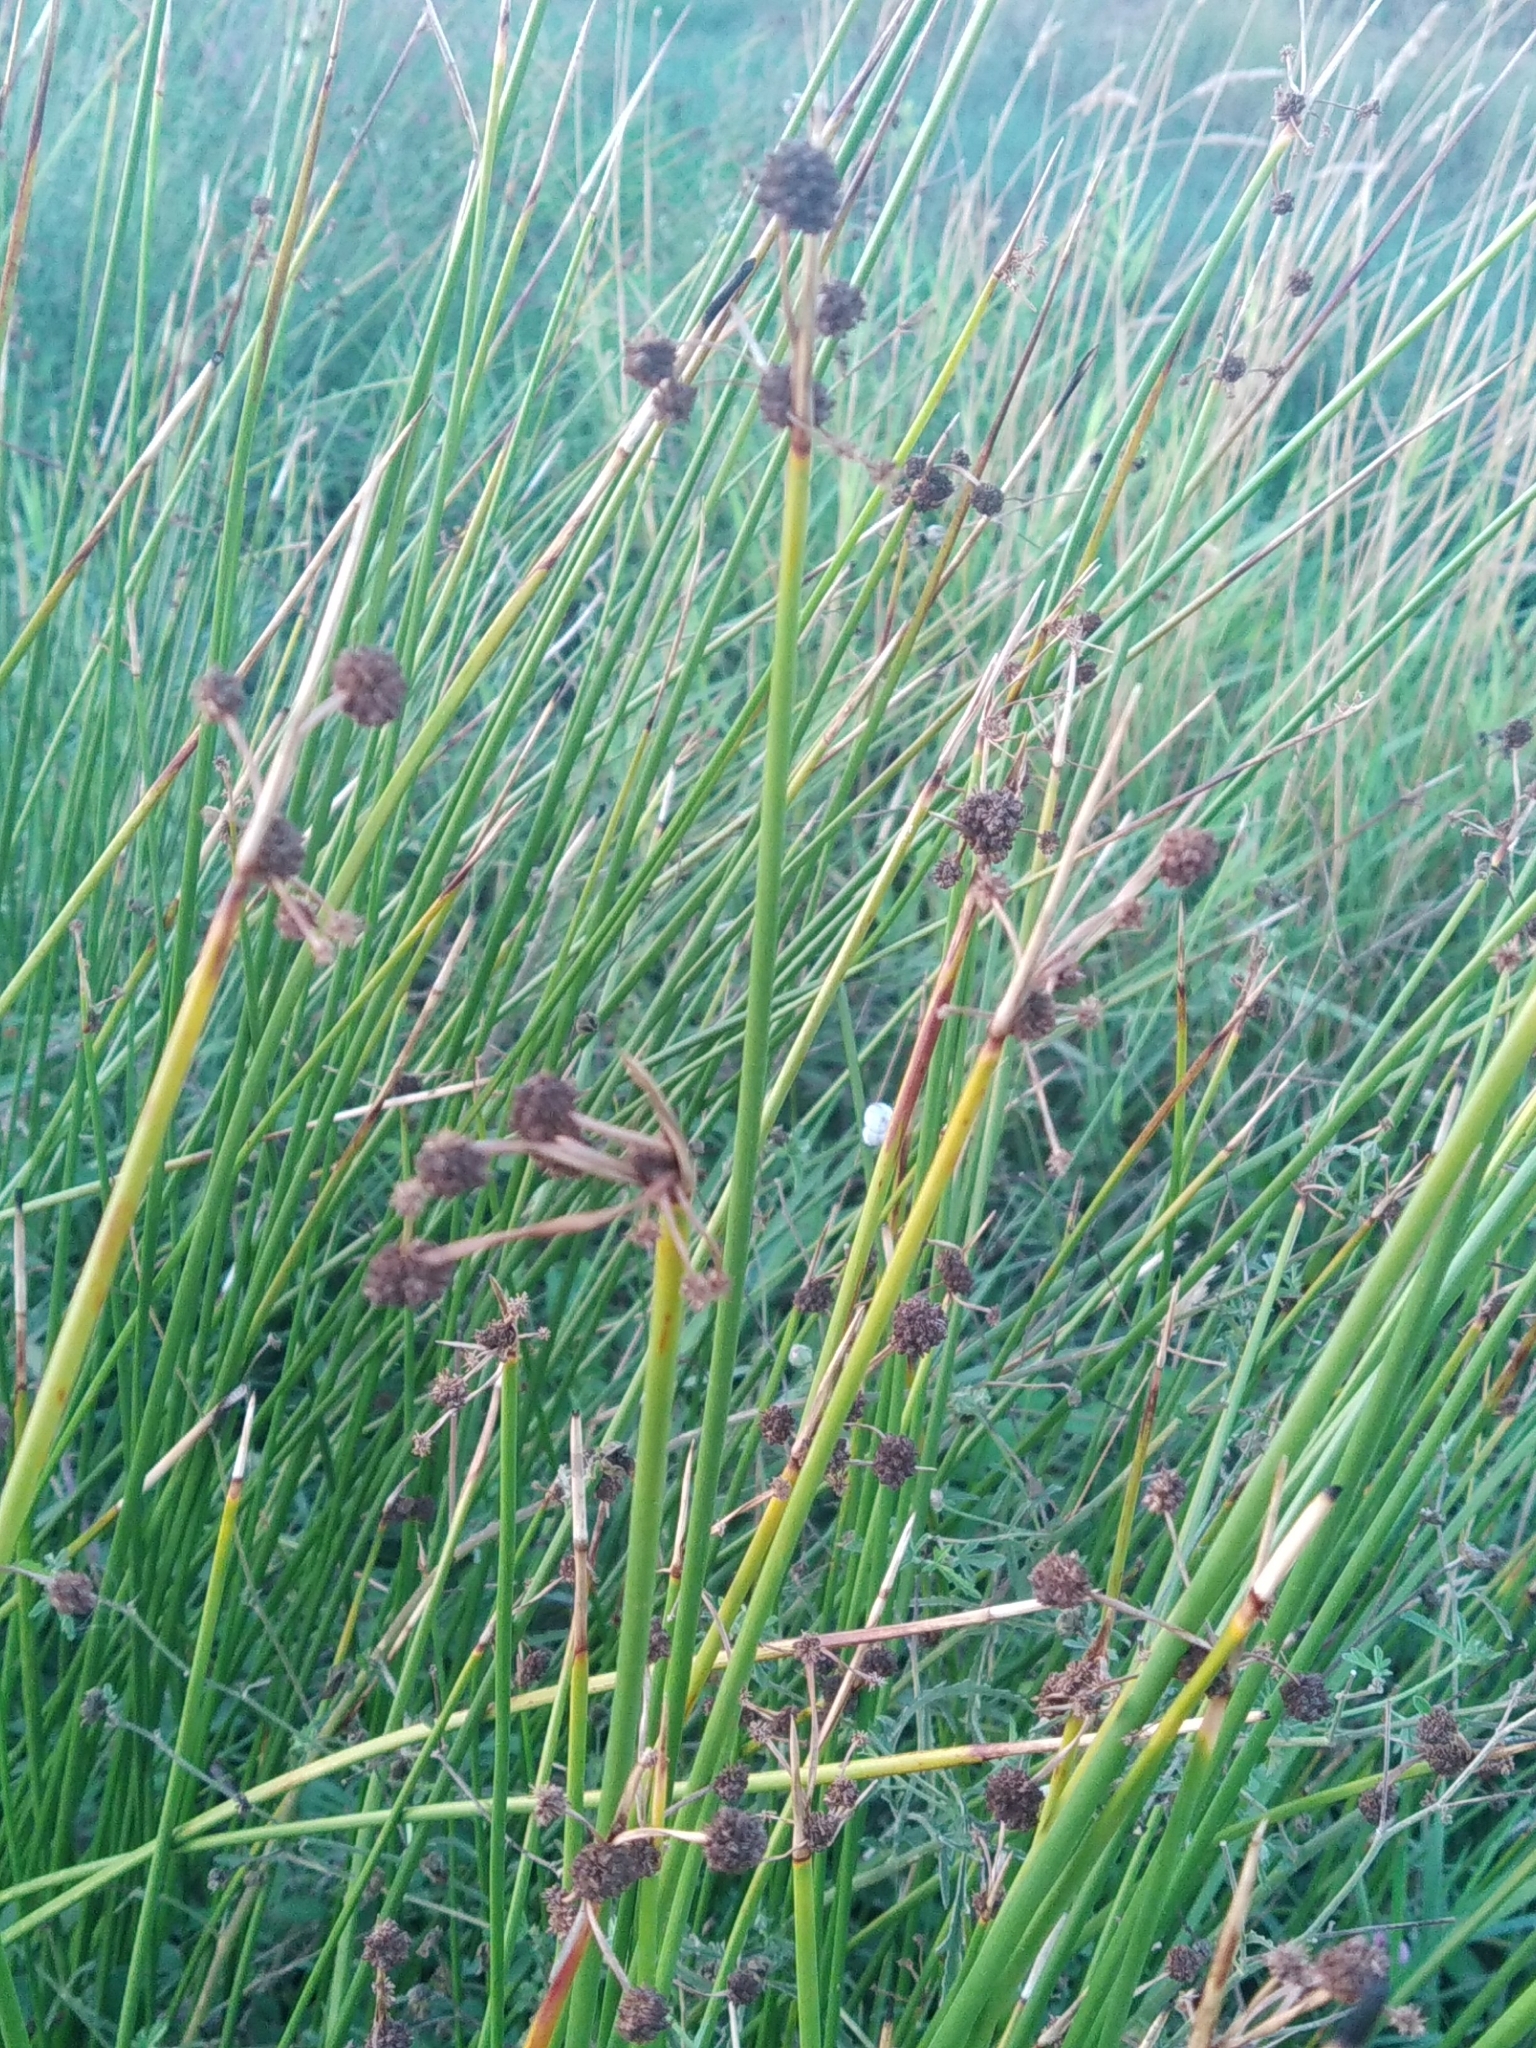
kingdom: Plantae
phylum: Tracheophyta
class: Liliopsida
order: Poales
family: Cyperaceae
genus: Scirpoides
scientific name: Scirpoides holoschoenus
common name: Round-headed club-rush
